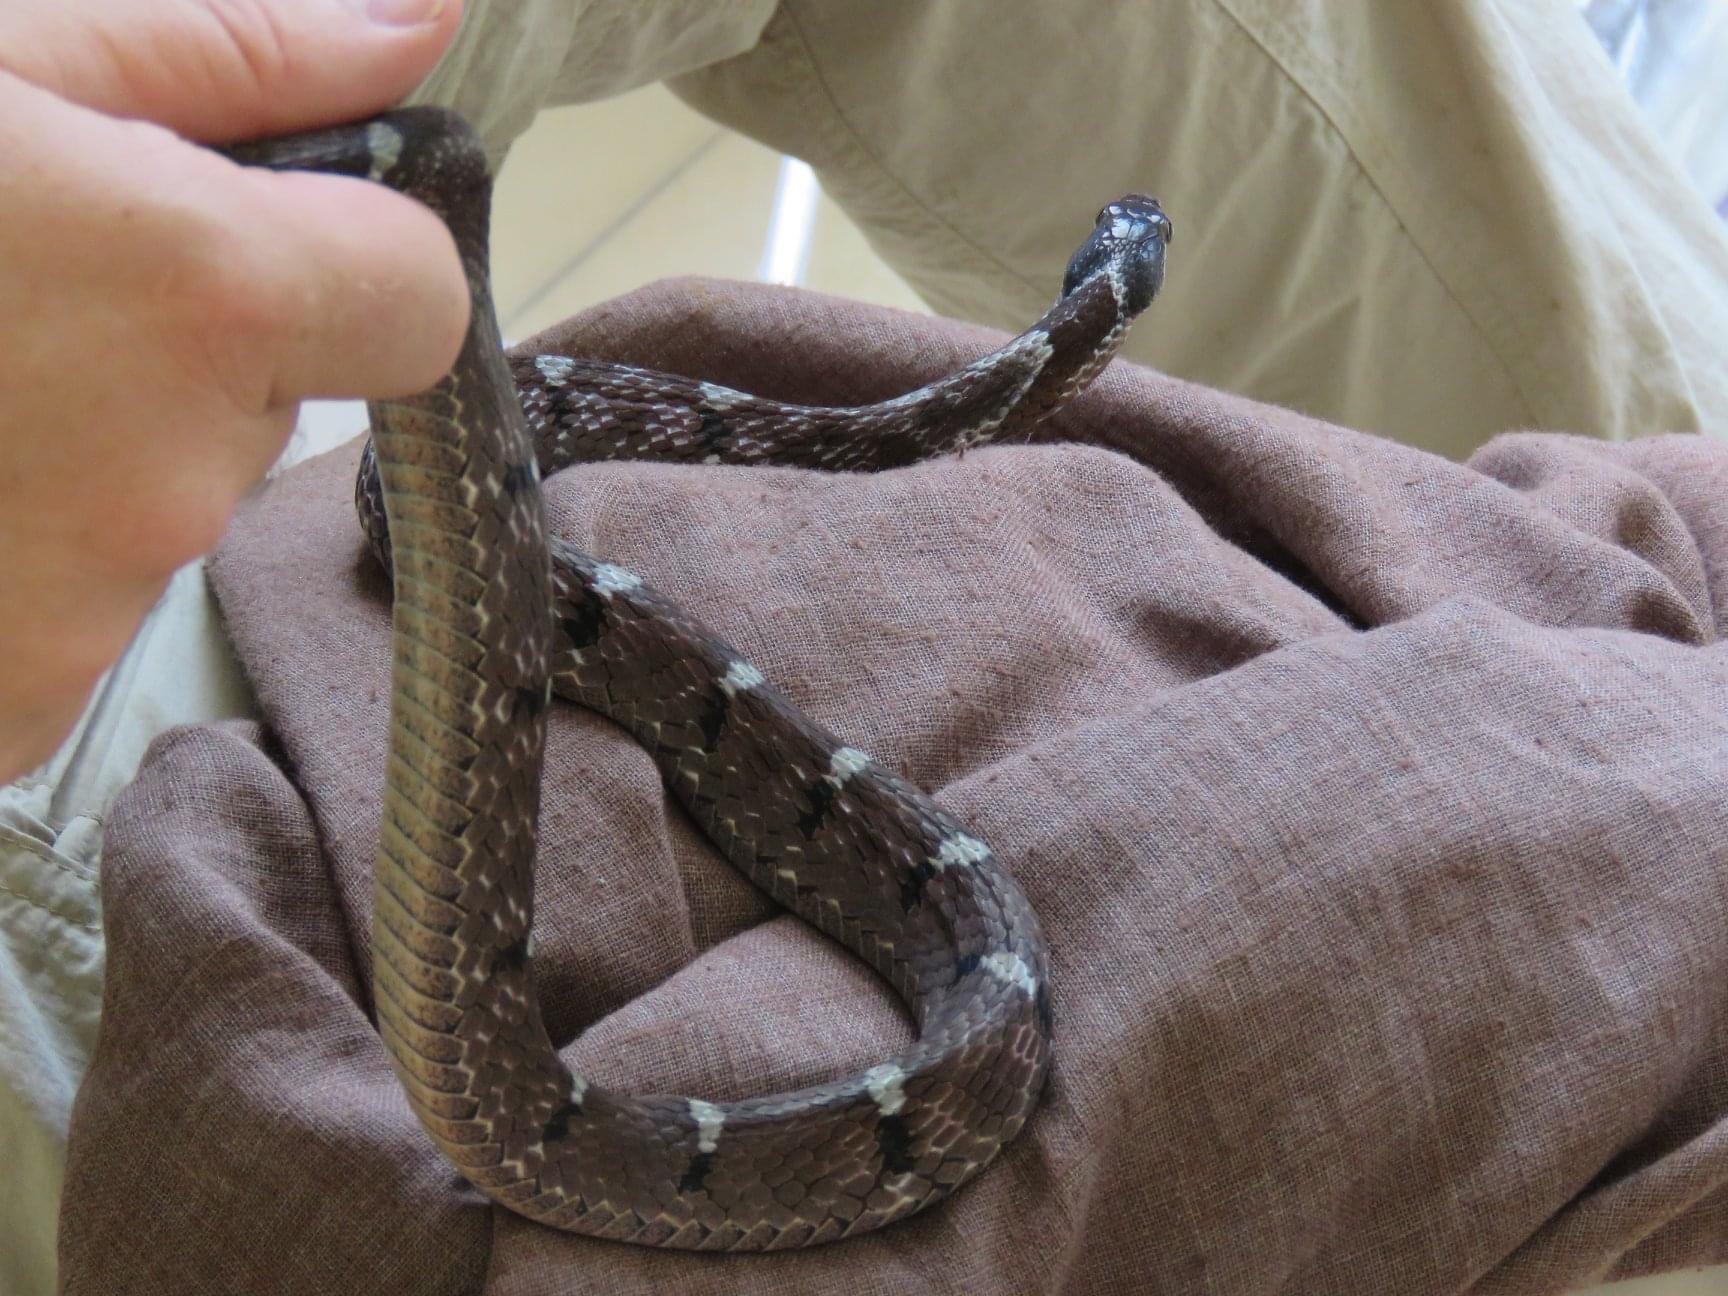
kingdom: Animalia
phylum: Chordata
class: Squamata
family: Colubridae
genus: Pseudoxenodon
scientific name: Pseudoxenodon macrops
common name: Big-eyed mountain keelback
